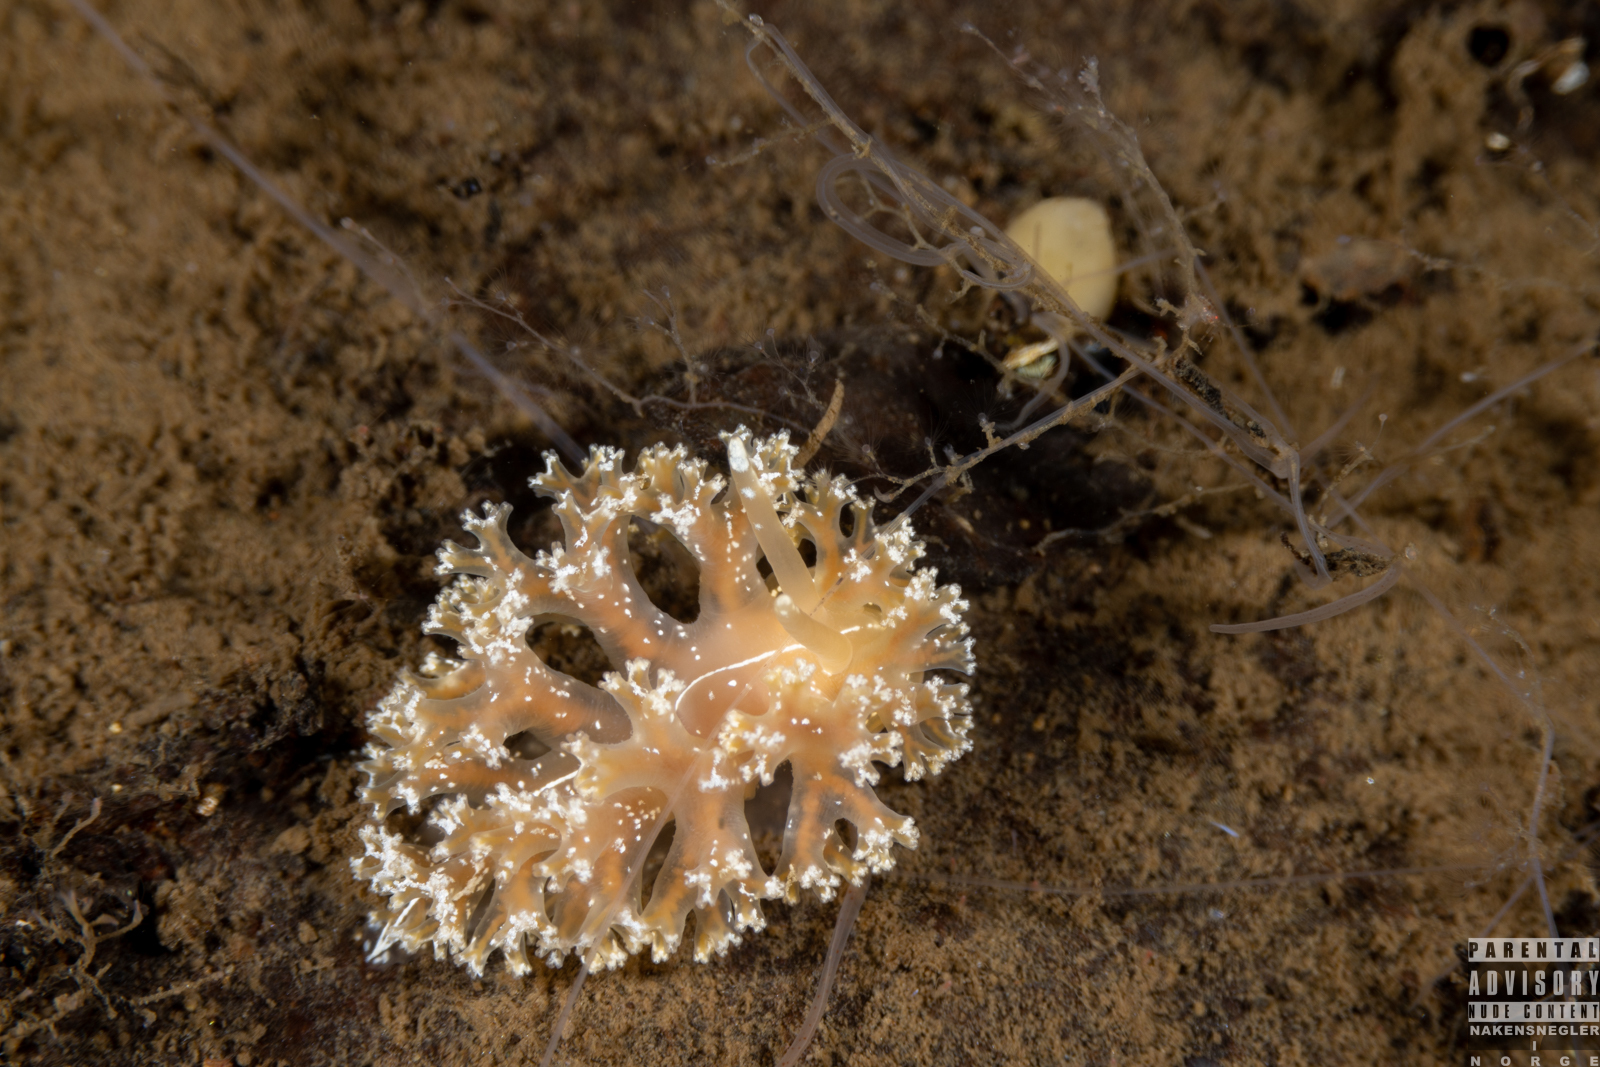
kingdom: Animalia
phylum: Mollusca
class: Gastropoda
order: Nudibranchia
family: Heroidae
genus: Hero
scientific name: Hero formosa
